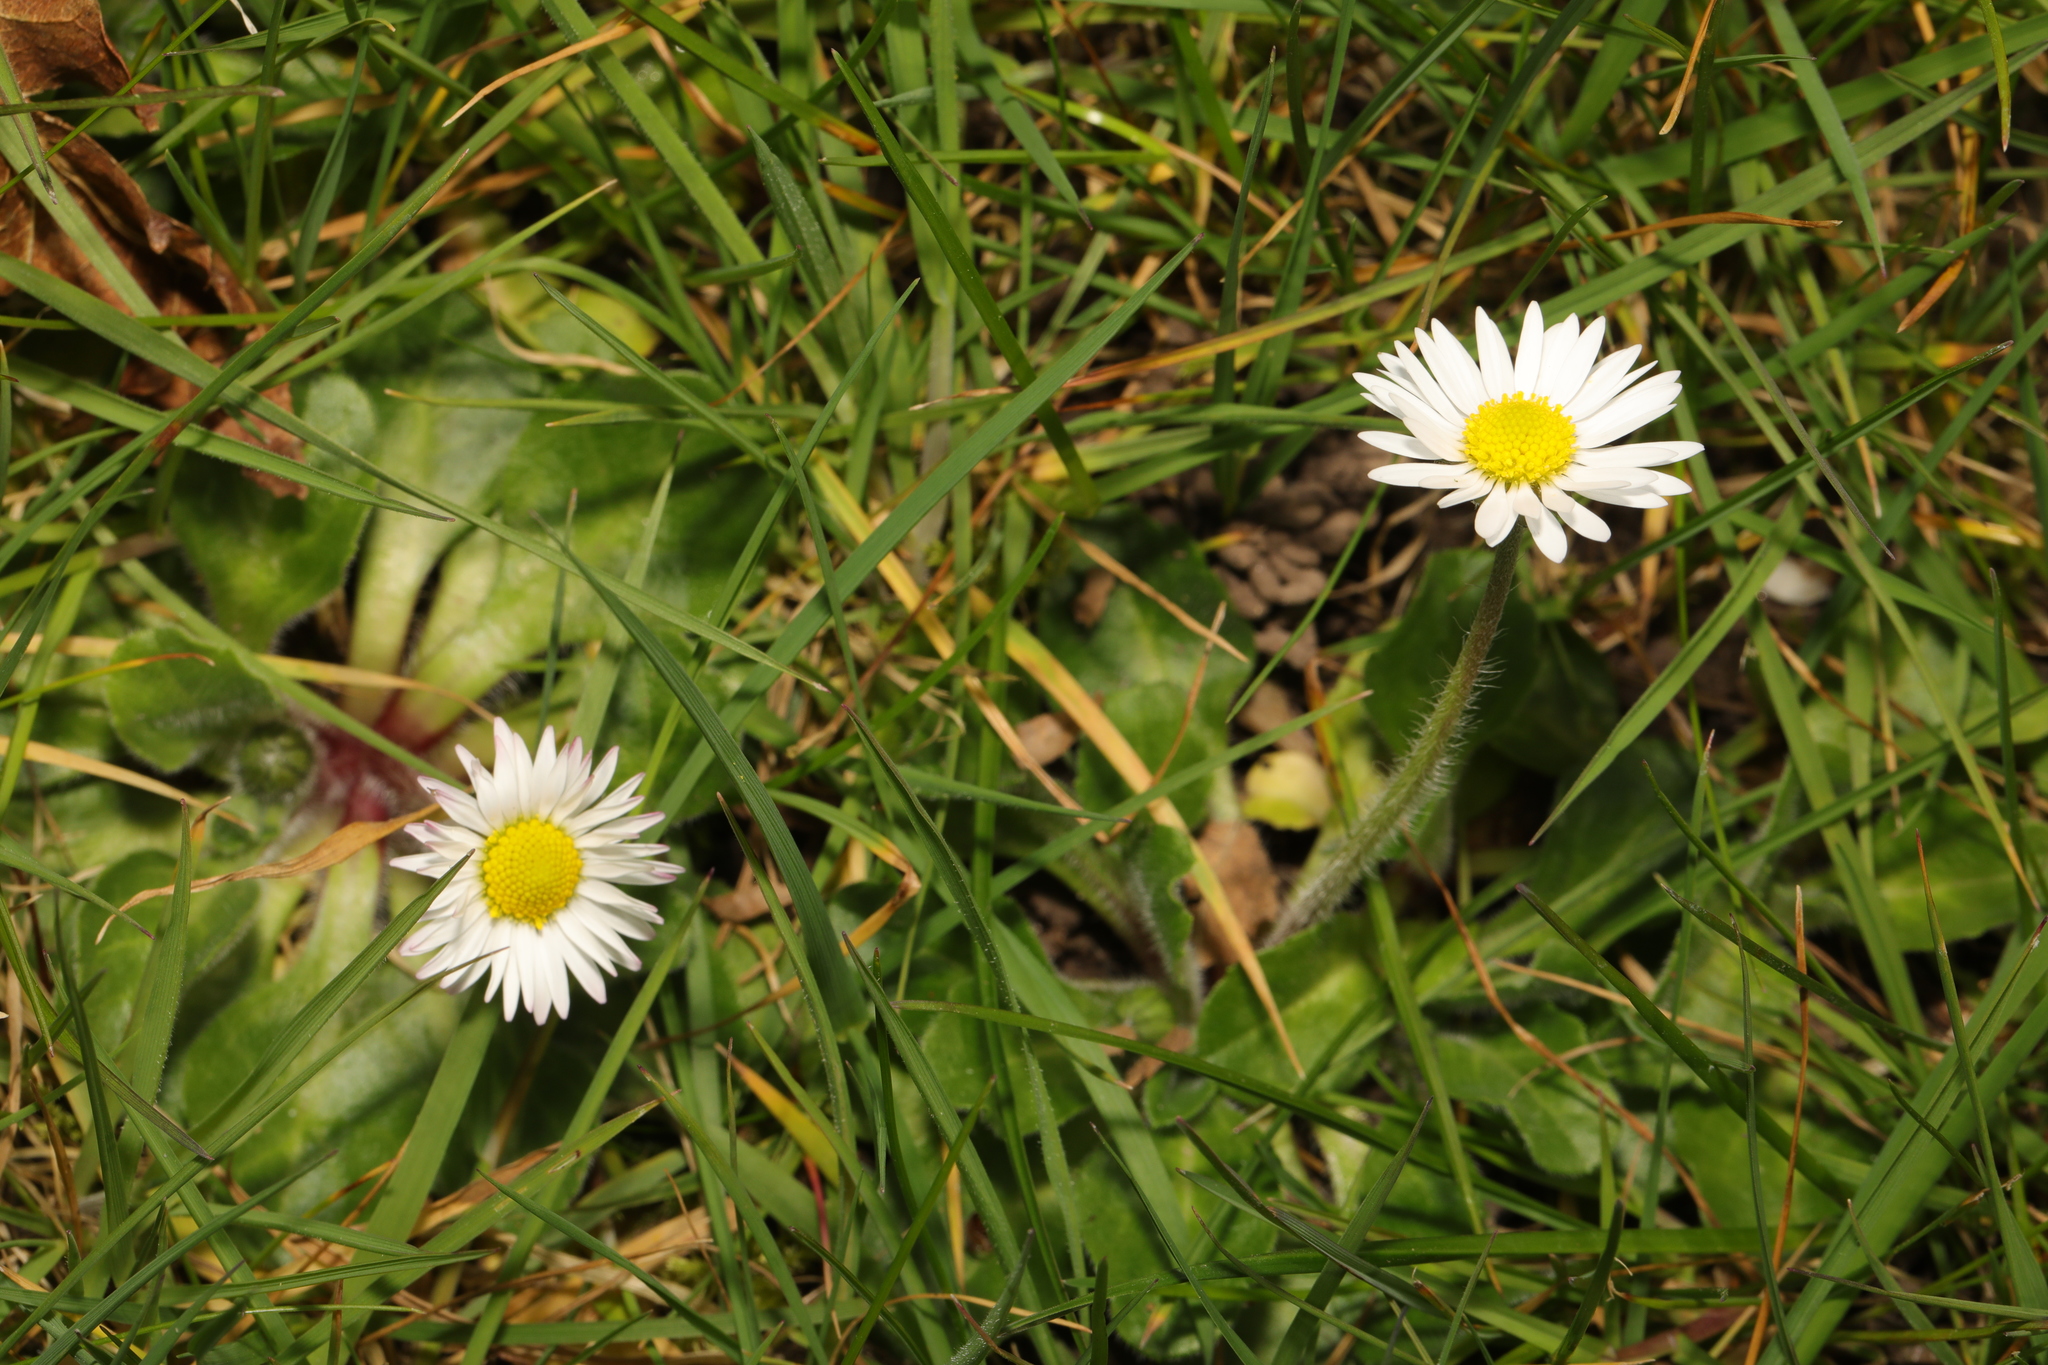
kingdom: Plantae
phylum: Tracheophyta
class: Magnoliopsida
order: Asterales
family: Asteraceae
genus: Bellis
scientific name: Bellis perennis
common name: Lawndaisy
